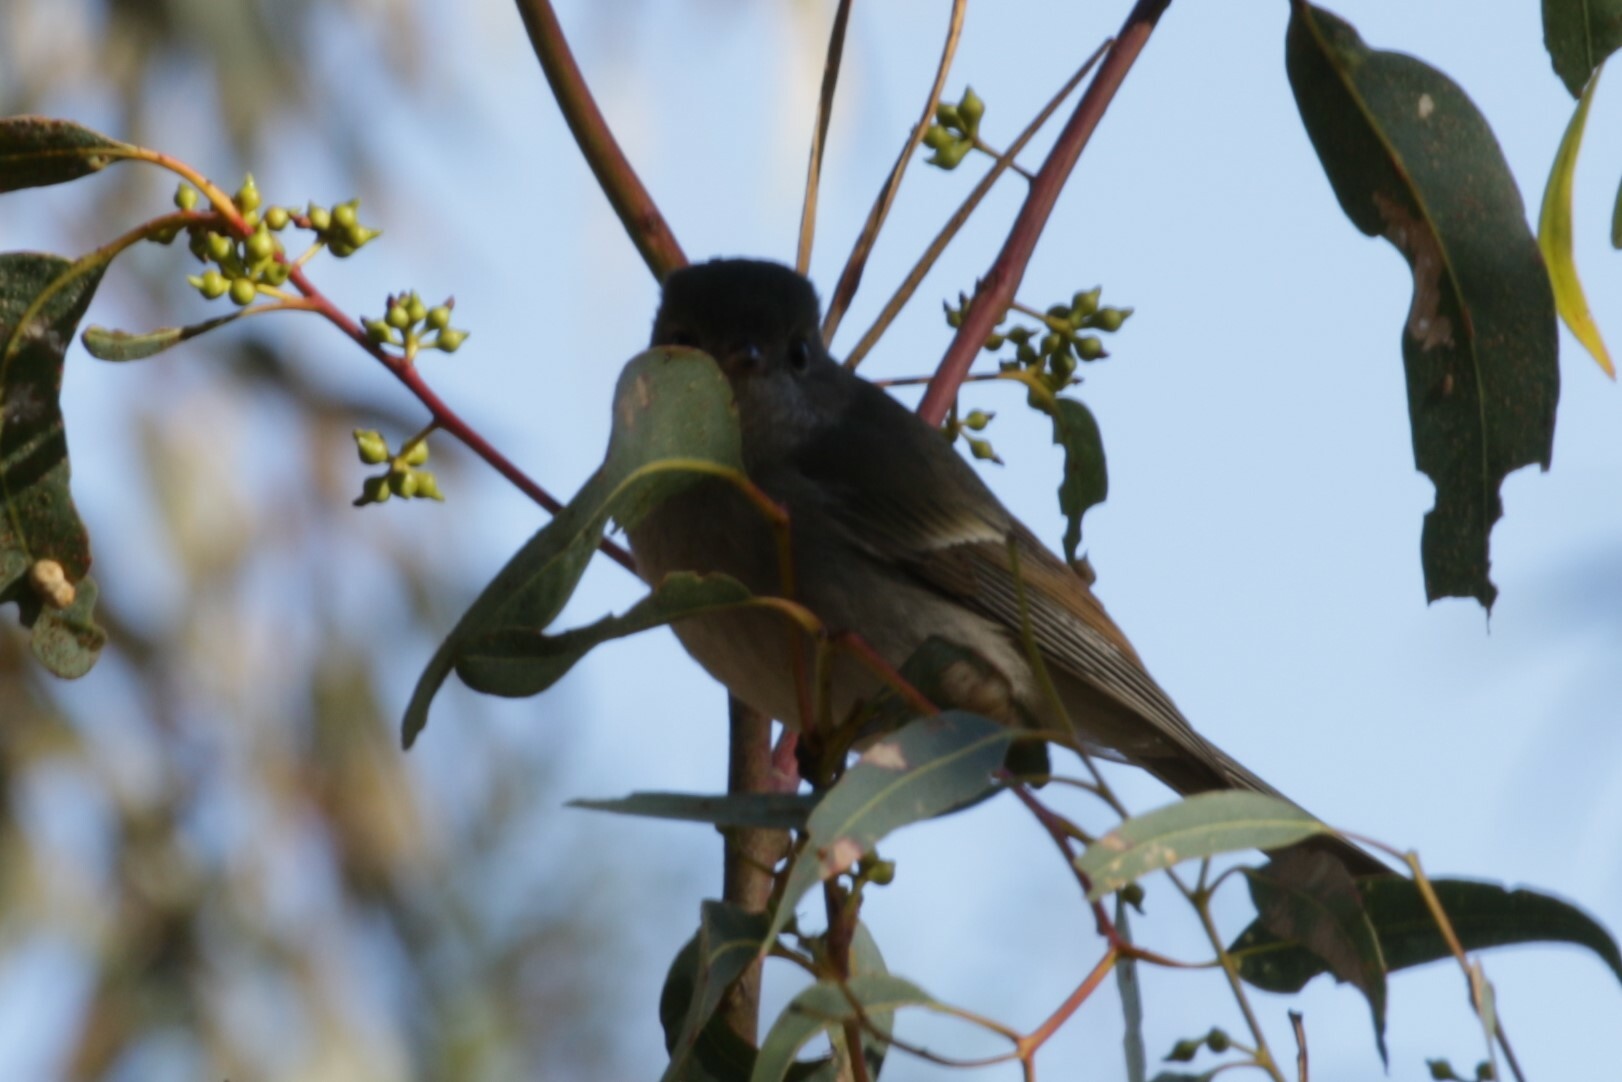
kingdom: Animalia
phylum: Chordata
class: Aves
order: Passeriformes
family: Pachycephalidae
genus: Pachycephala
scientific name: Pachycephala pectoralis
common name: Australian golden whistler
